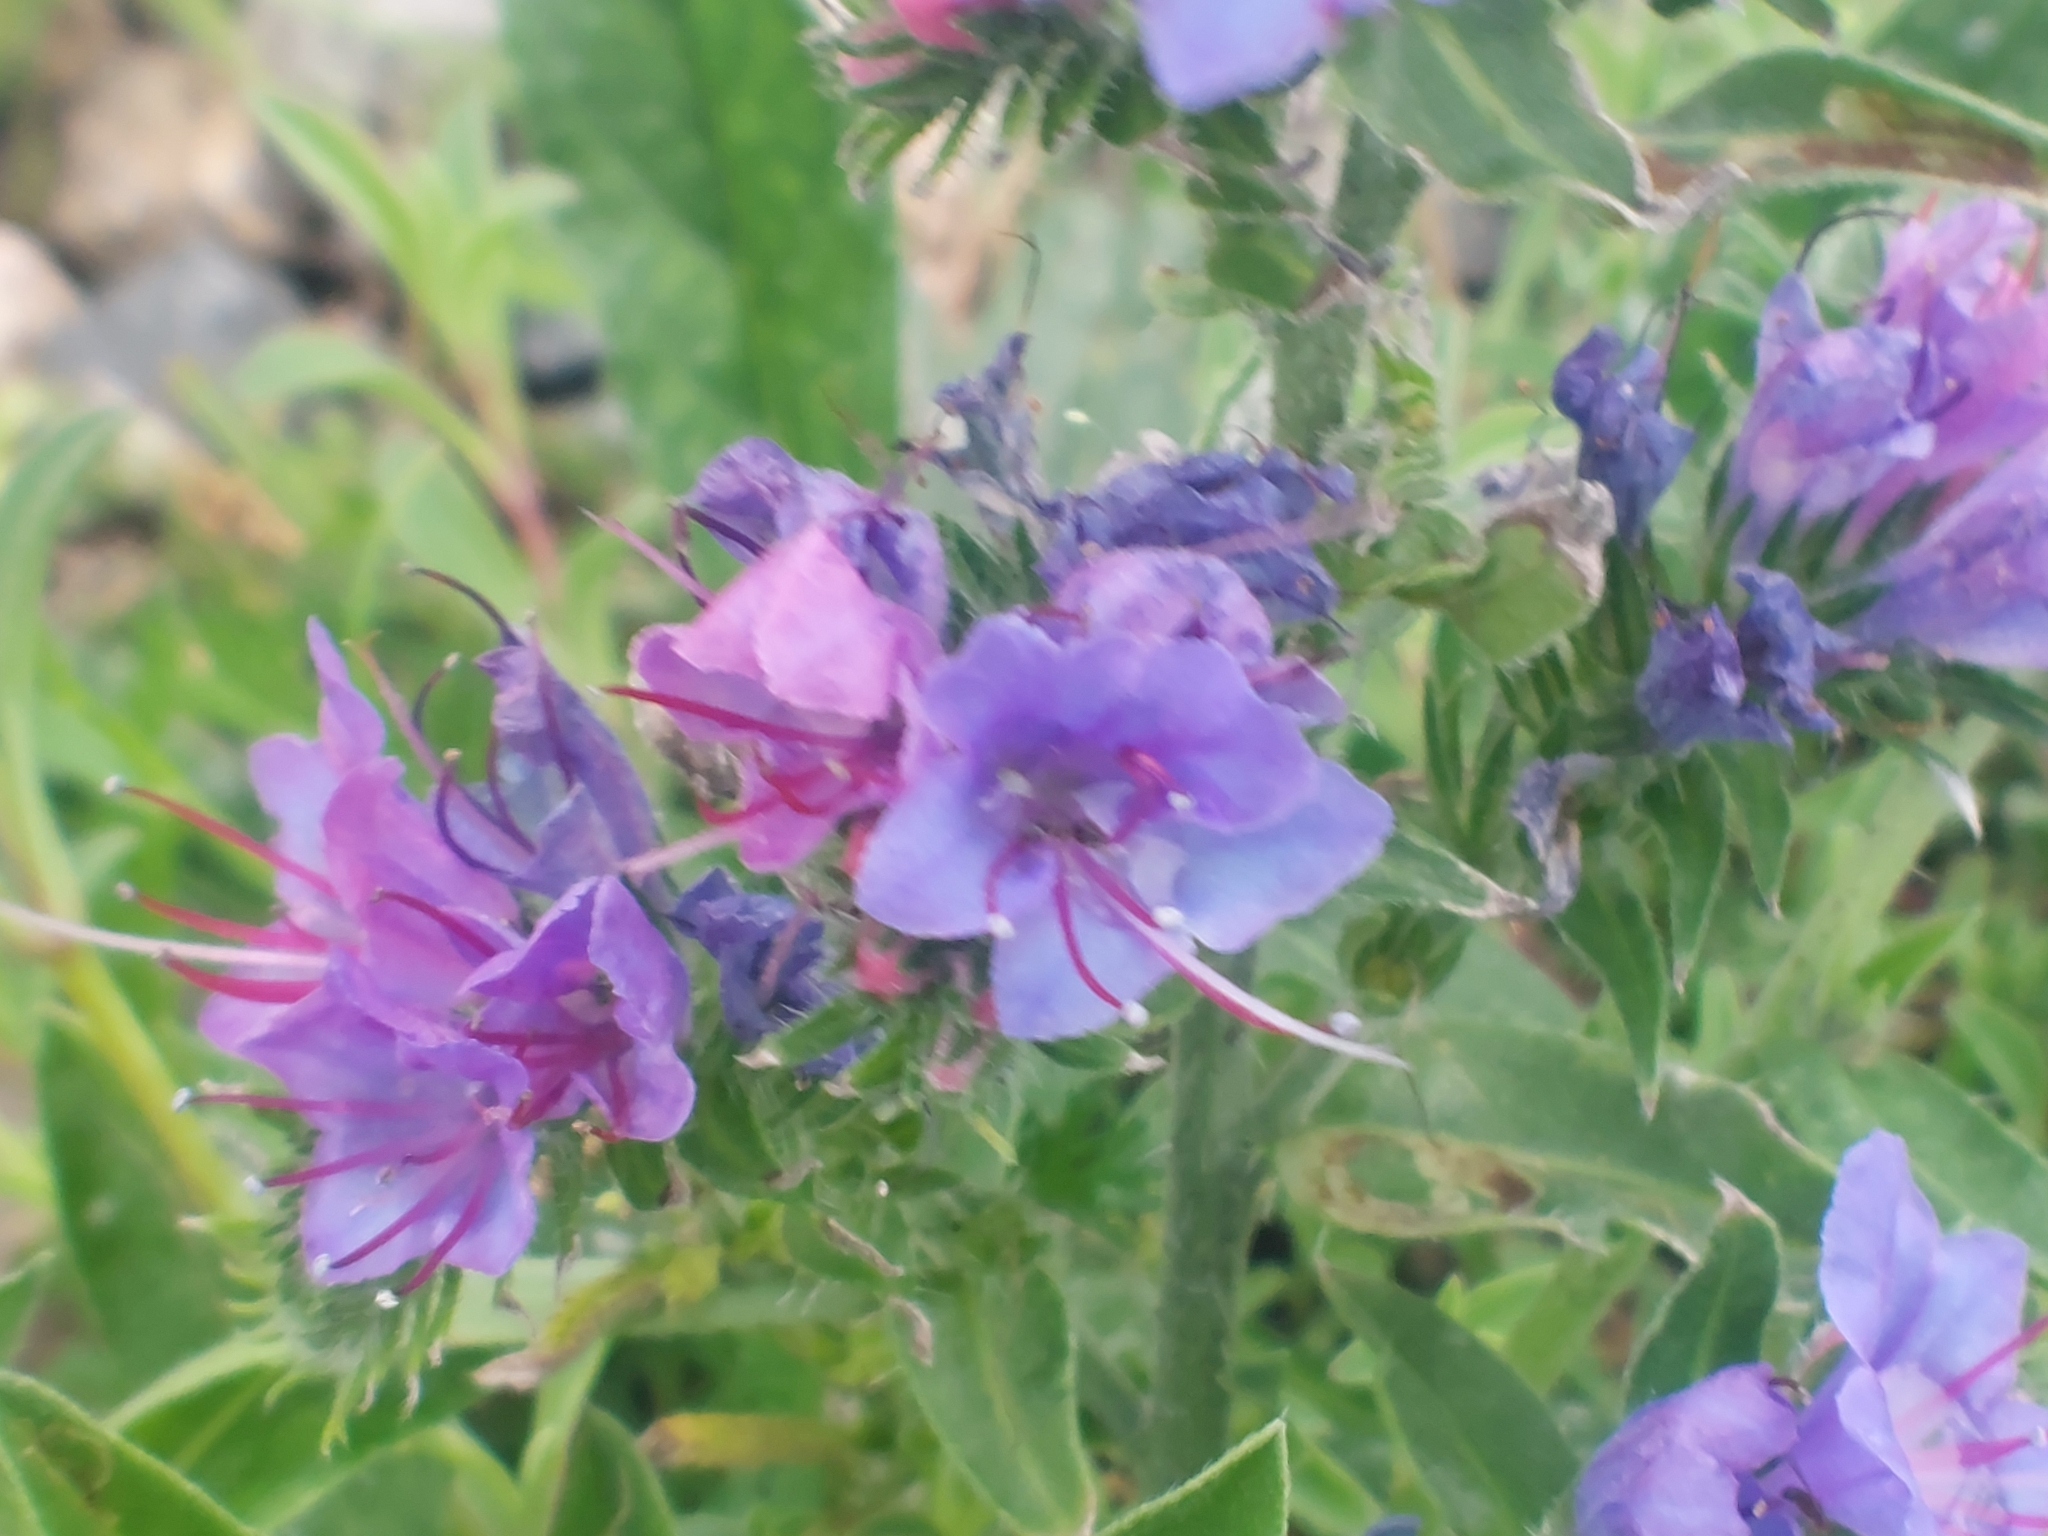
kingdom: Plantae
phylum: Tracheophyta
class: Magnoliopsida
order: Boraginales
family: Boraginaceae
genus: Echium
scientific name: Echium vulgare
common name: Common viper's bugloss
